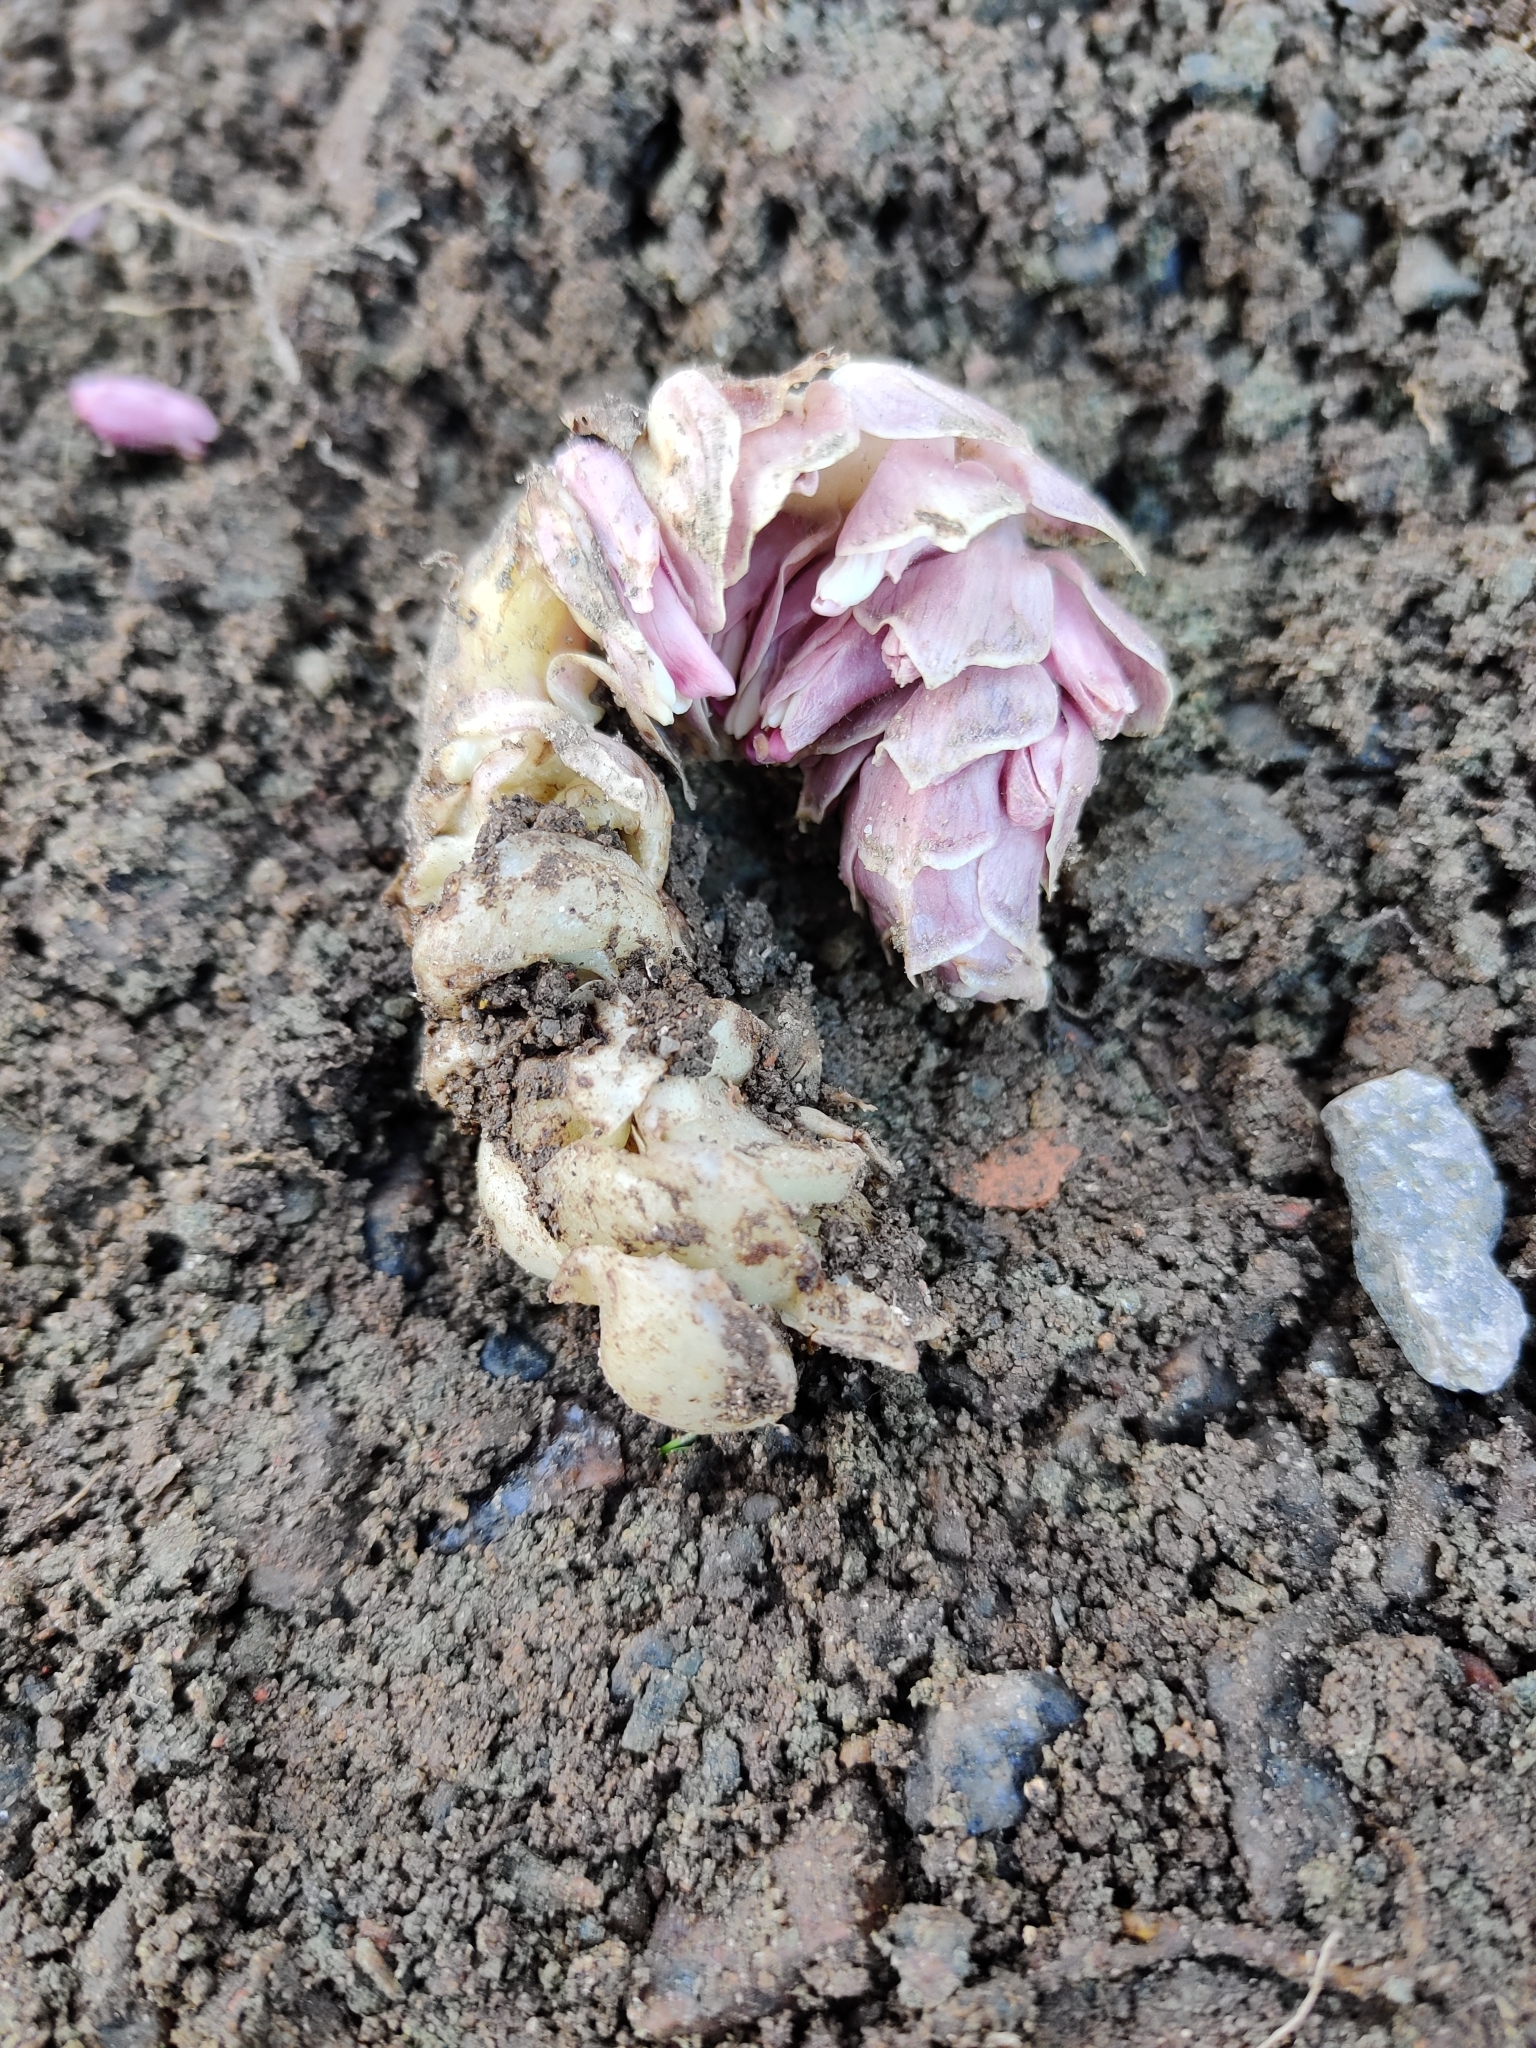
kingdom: Plantae
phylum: Tracheophyta
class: Magnoliopsida
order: Lamiales
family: Orobanchaceae
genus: Lathraea
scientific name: Lathraea squamaria
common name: Toothwort
